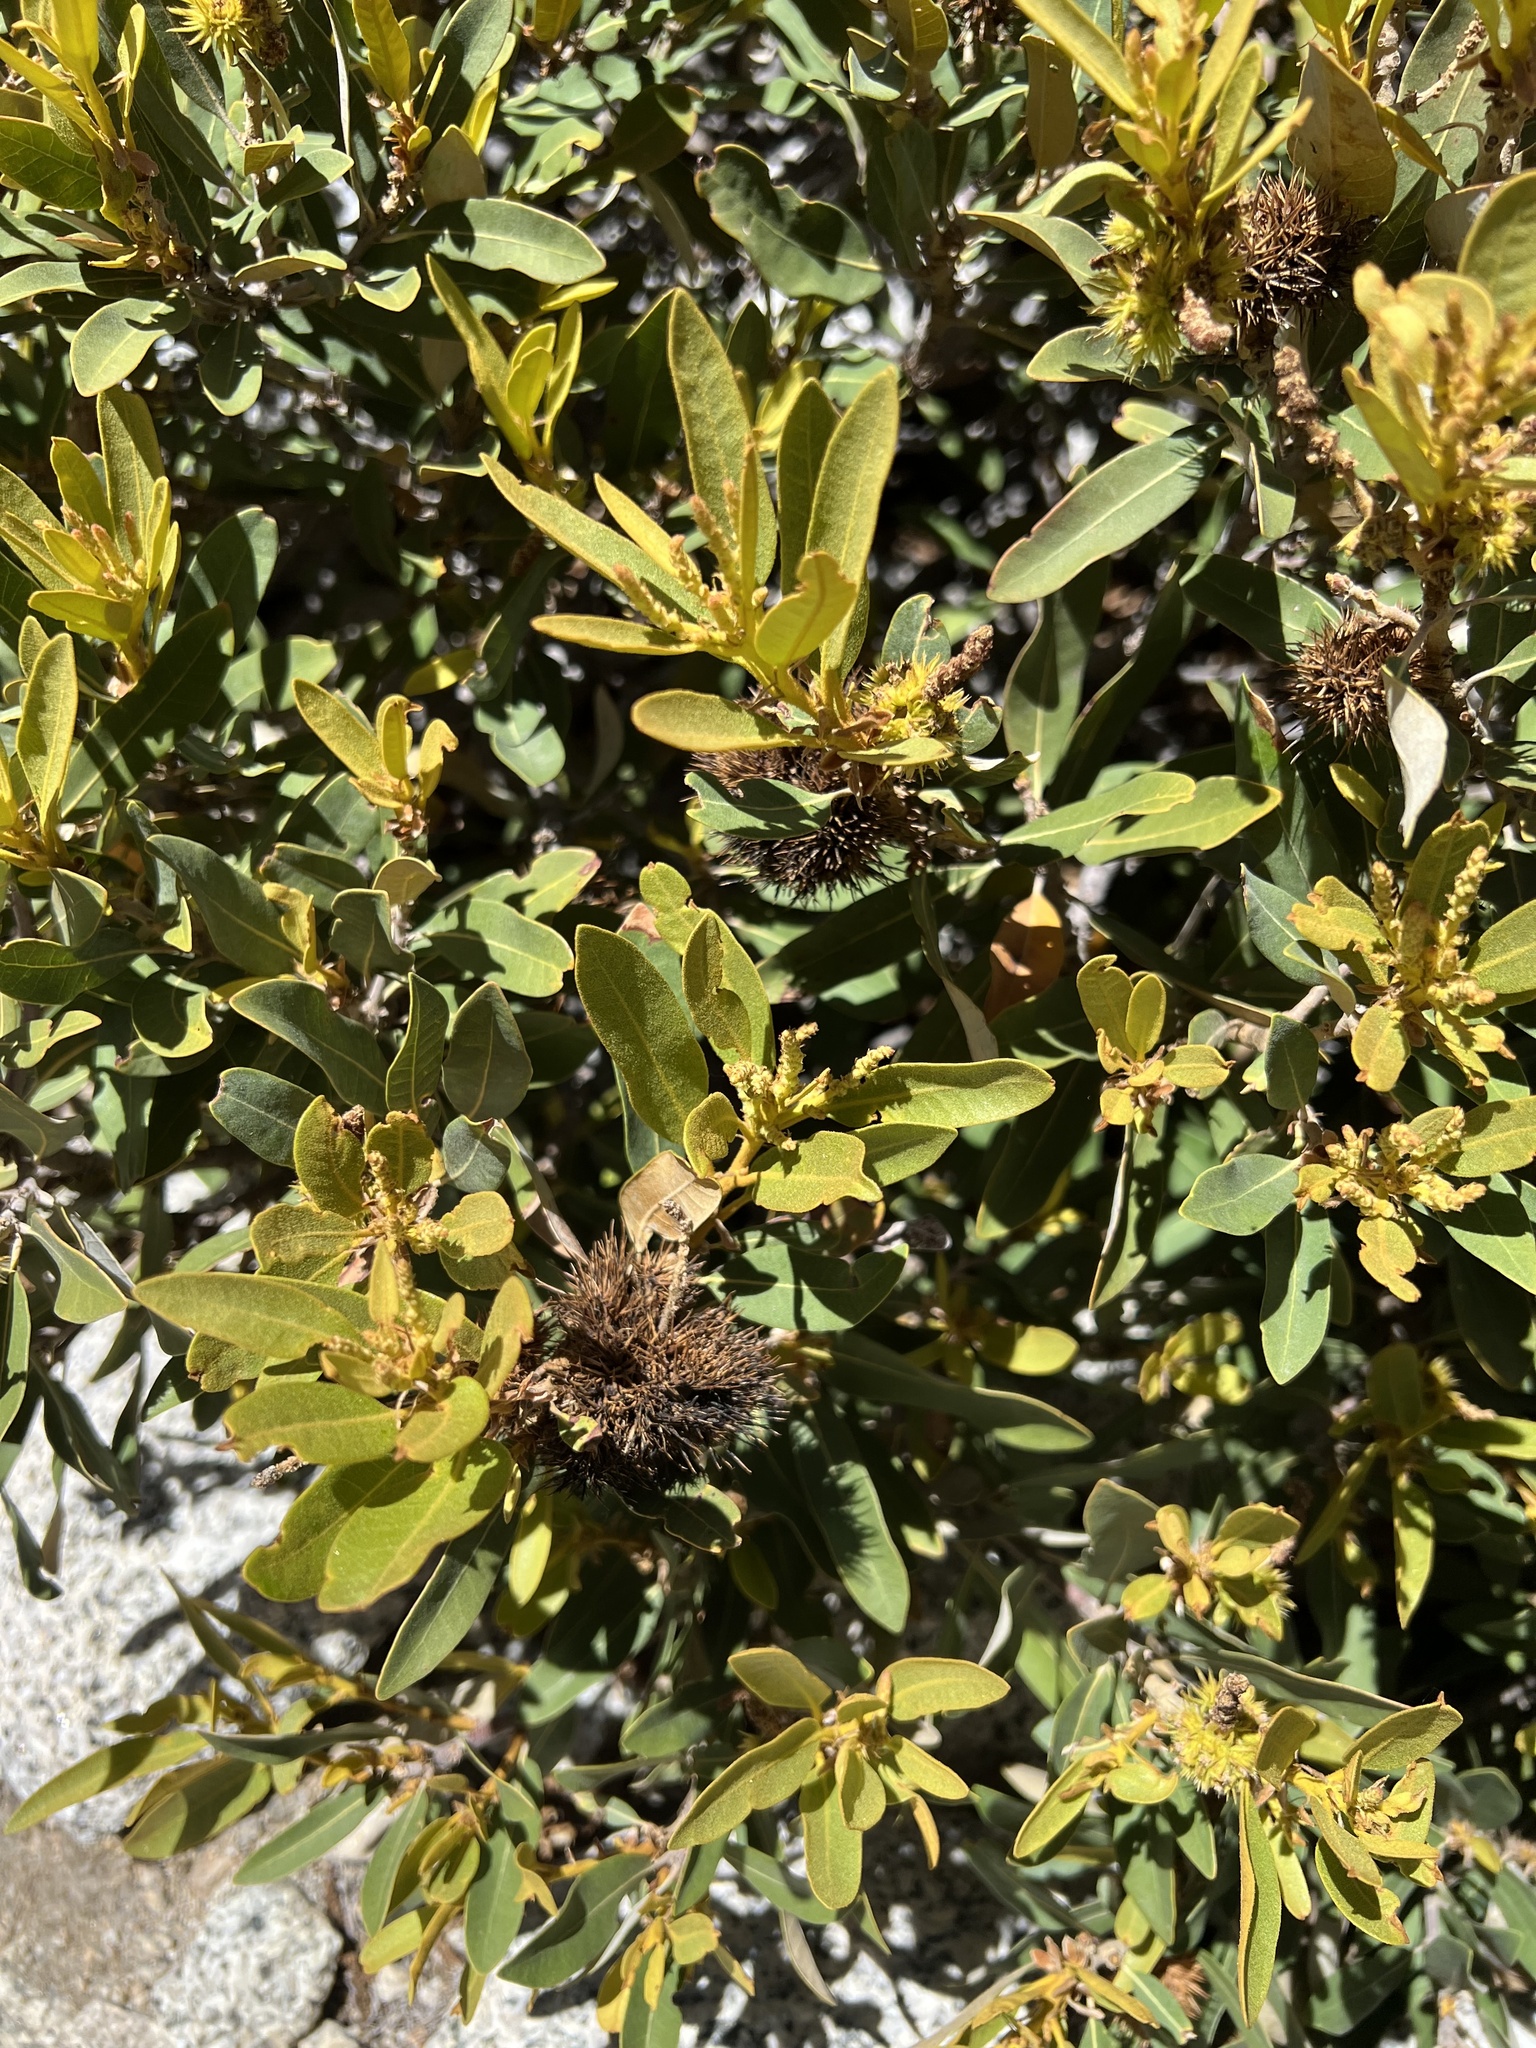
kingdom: Plantae
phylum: Tracheophyta
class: Magnoliopsida
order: Fagales
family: Fagaceae
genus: Chrysolepis
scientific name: Chrysolepis sempervirens
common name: Bush chinquapin
